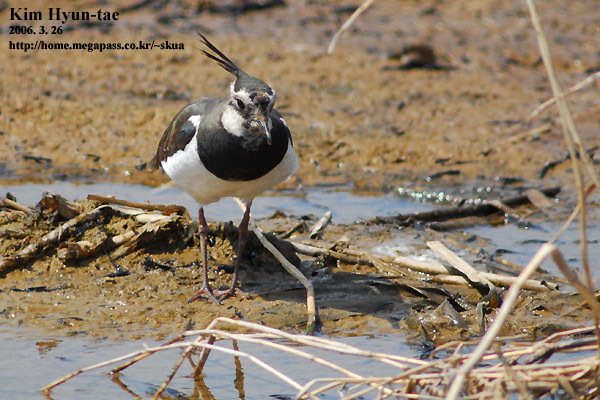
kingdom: Animalia
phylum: Chordata
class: Aves
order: Charadriiformes
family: Charadriidae
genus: Vanellus
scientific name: Vanellus vanellus
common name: Northern lapwing
